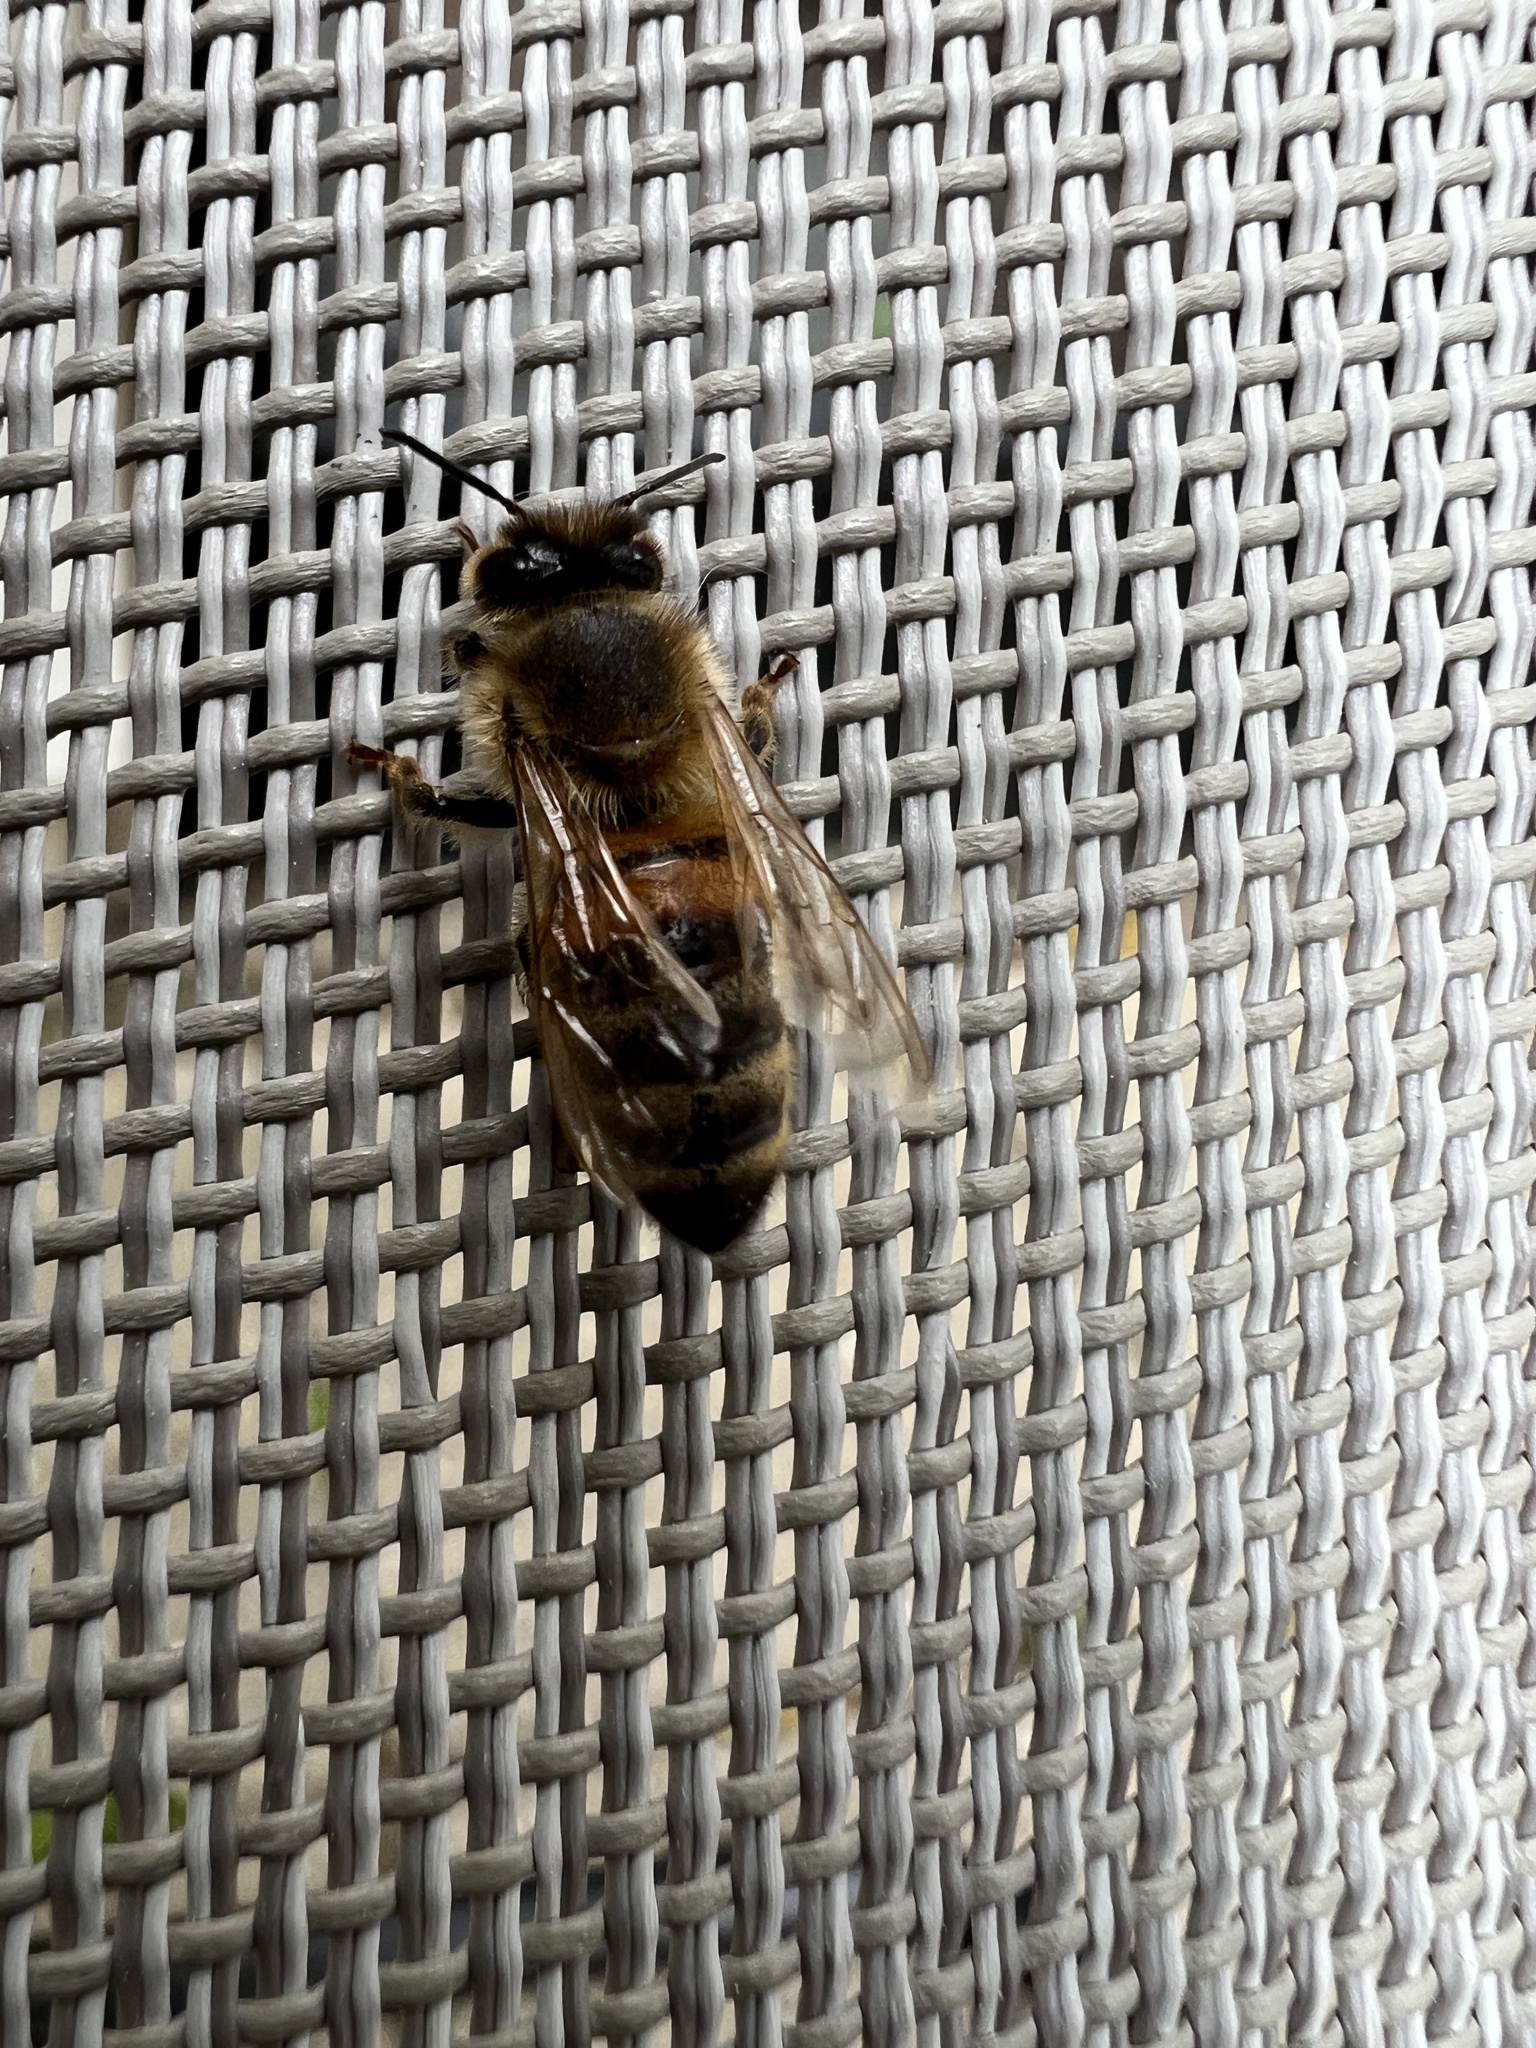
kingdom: Animalia
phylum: Arthropoda
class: Insecta
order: Hymenoptera
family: Apidae
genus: Apis
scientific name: Apis mellifera
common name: Honey bee
